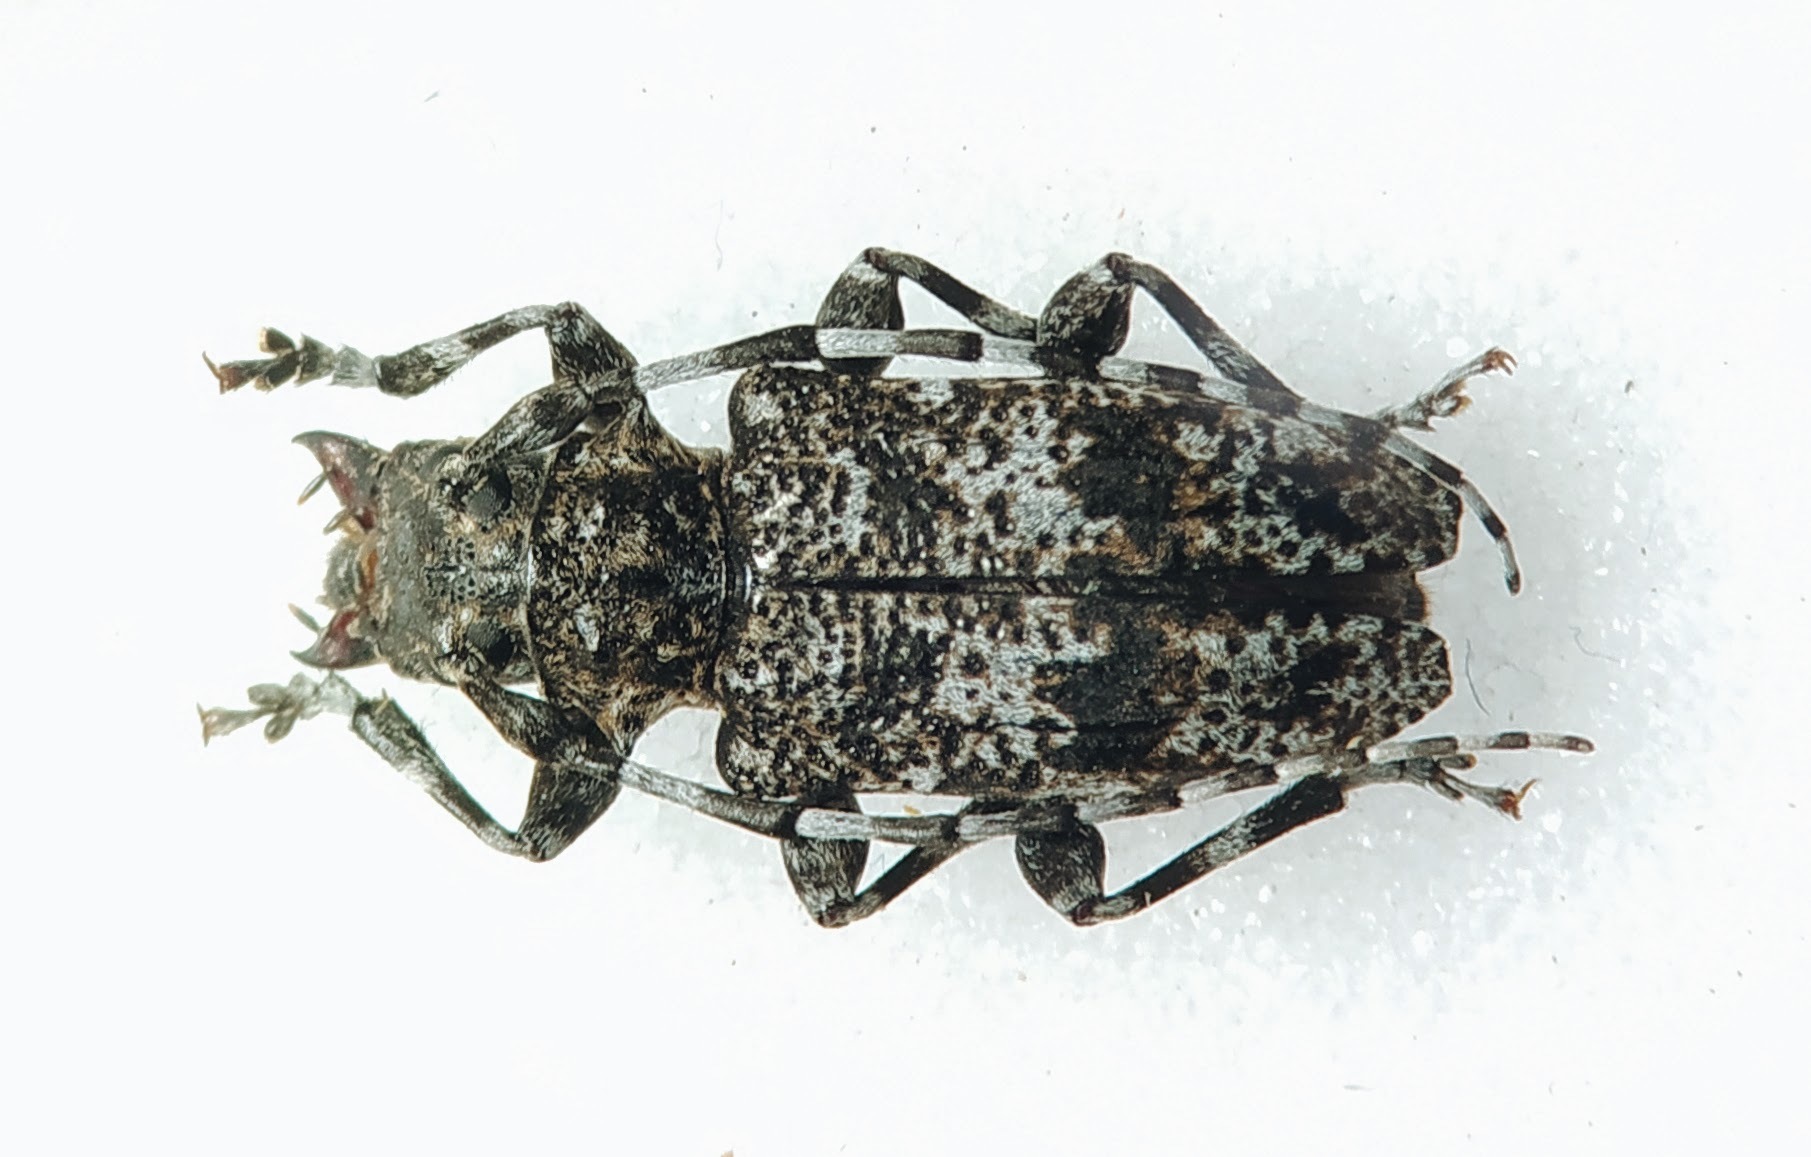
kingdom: Animalia
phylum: Arthropoda
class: Insecta
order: Coleoptera
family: Cerambycidae
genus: Aegomorphus
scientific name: Aegomorphus clavipes
